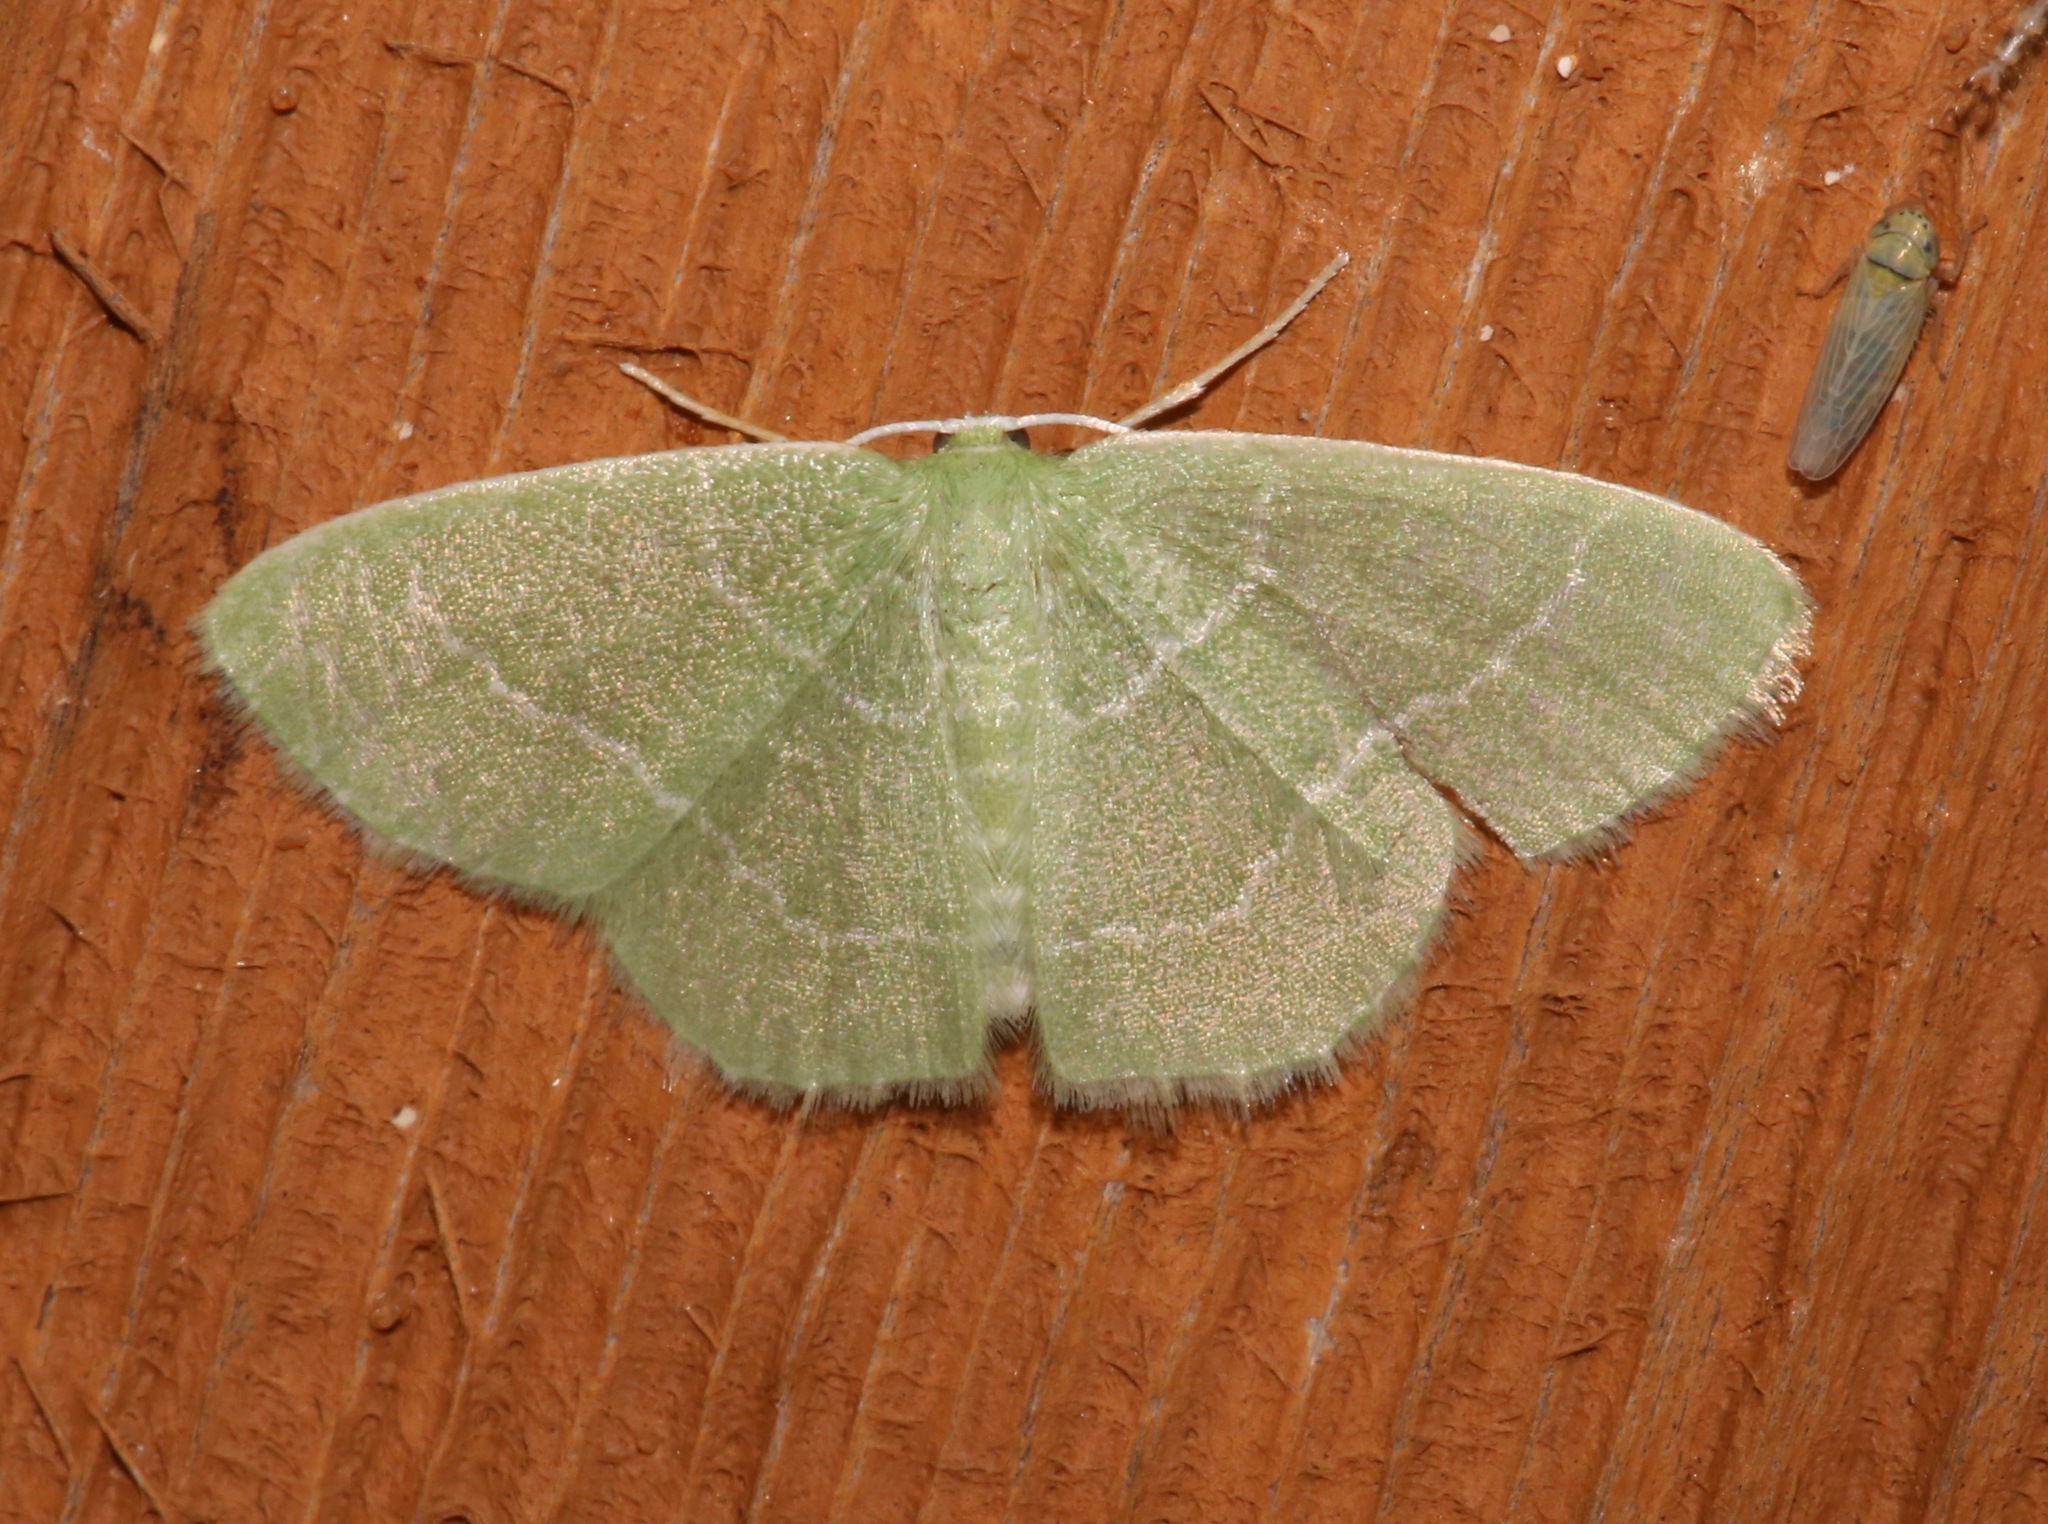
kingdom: Animalia
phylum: Arthropoda
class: Insecta
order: Lepidoptera
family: Geometridae
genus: Nemoria
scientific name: Nemoria elfa
